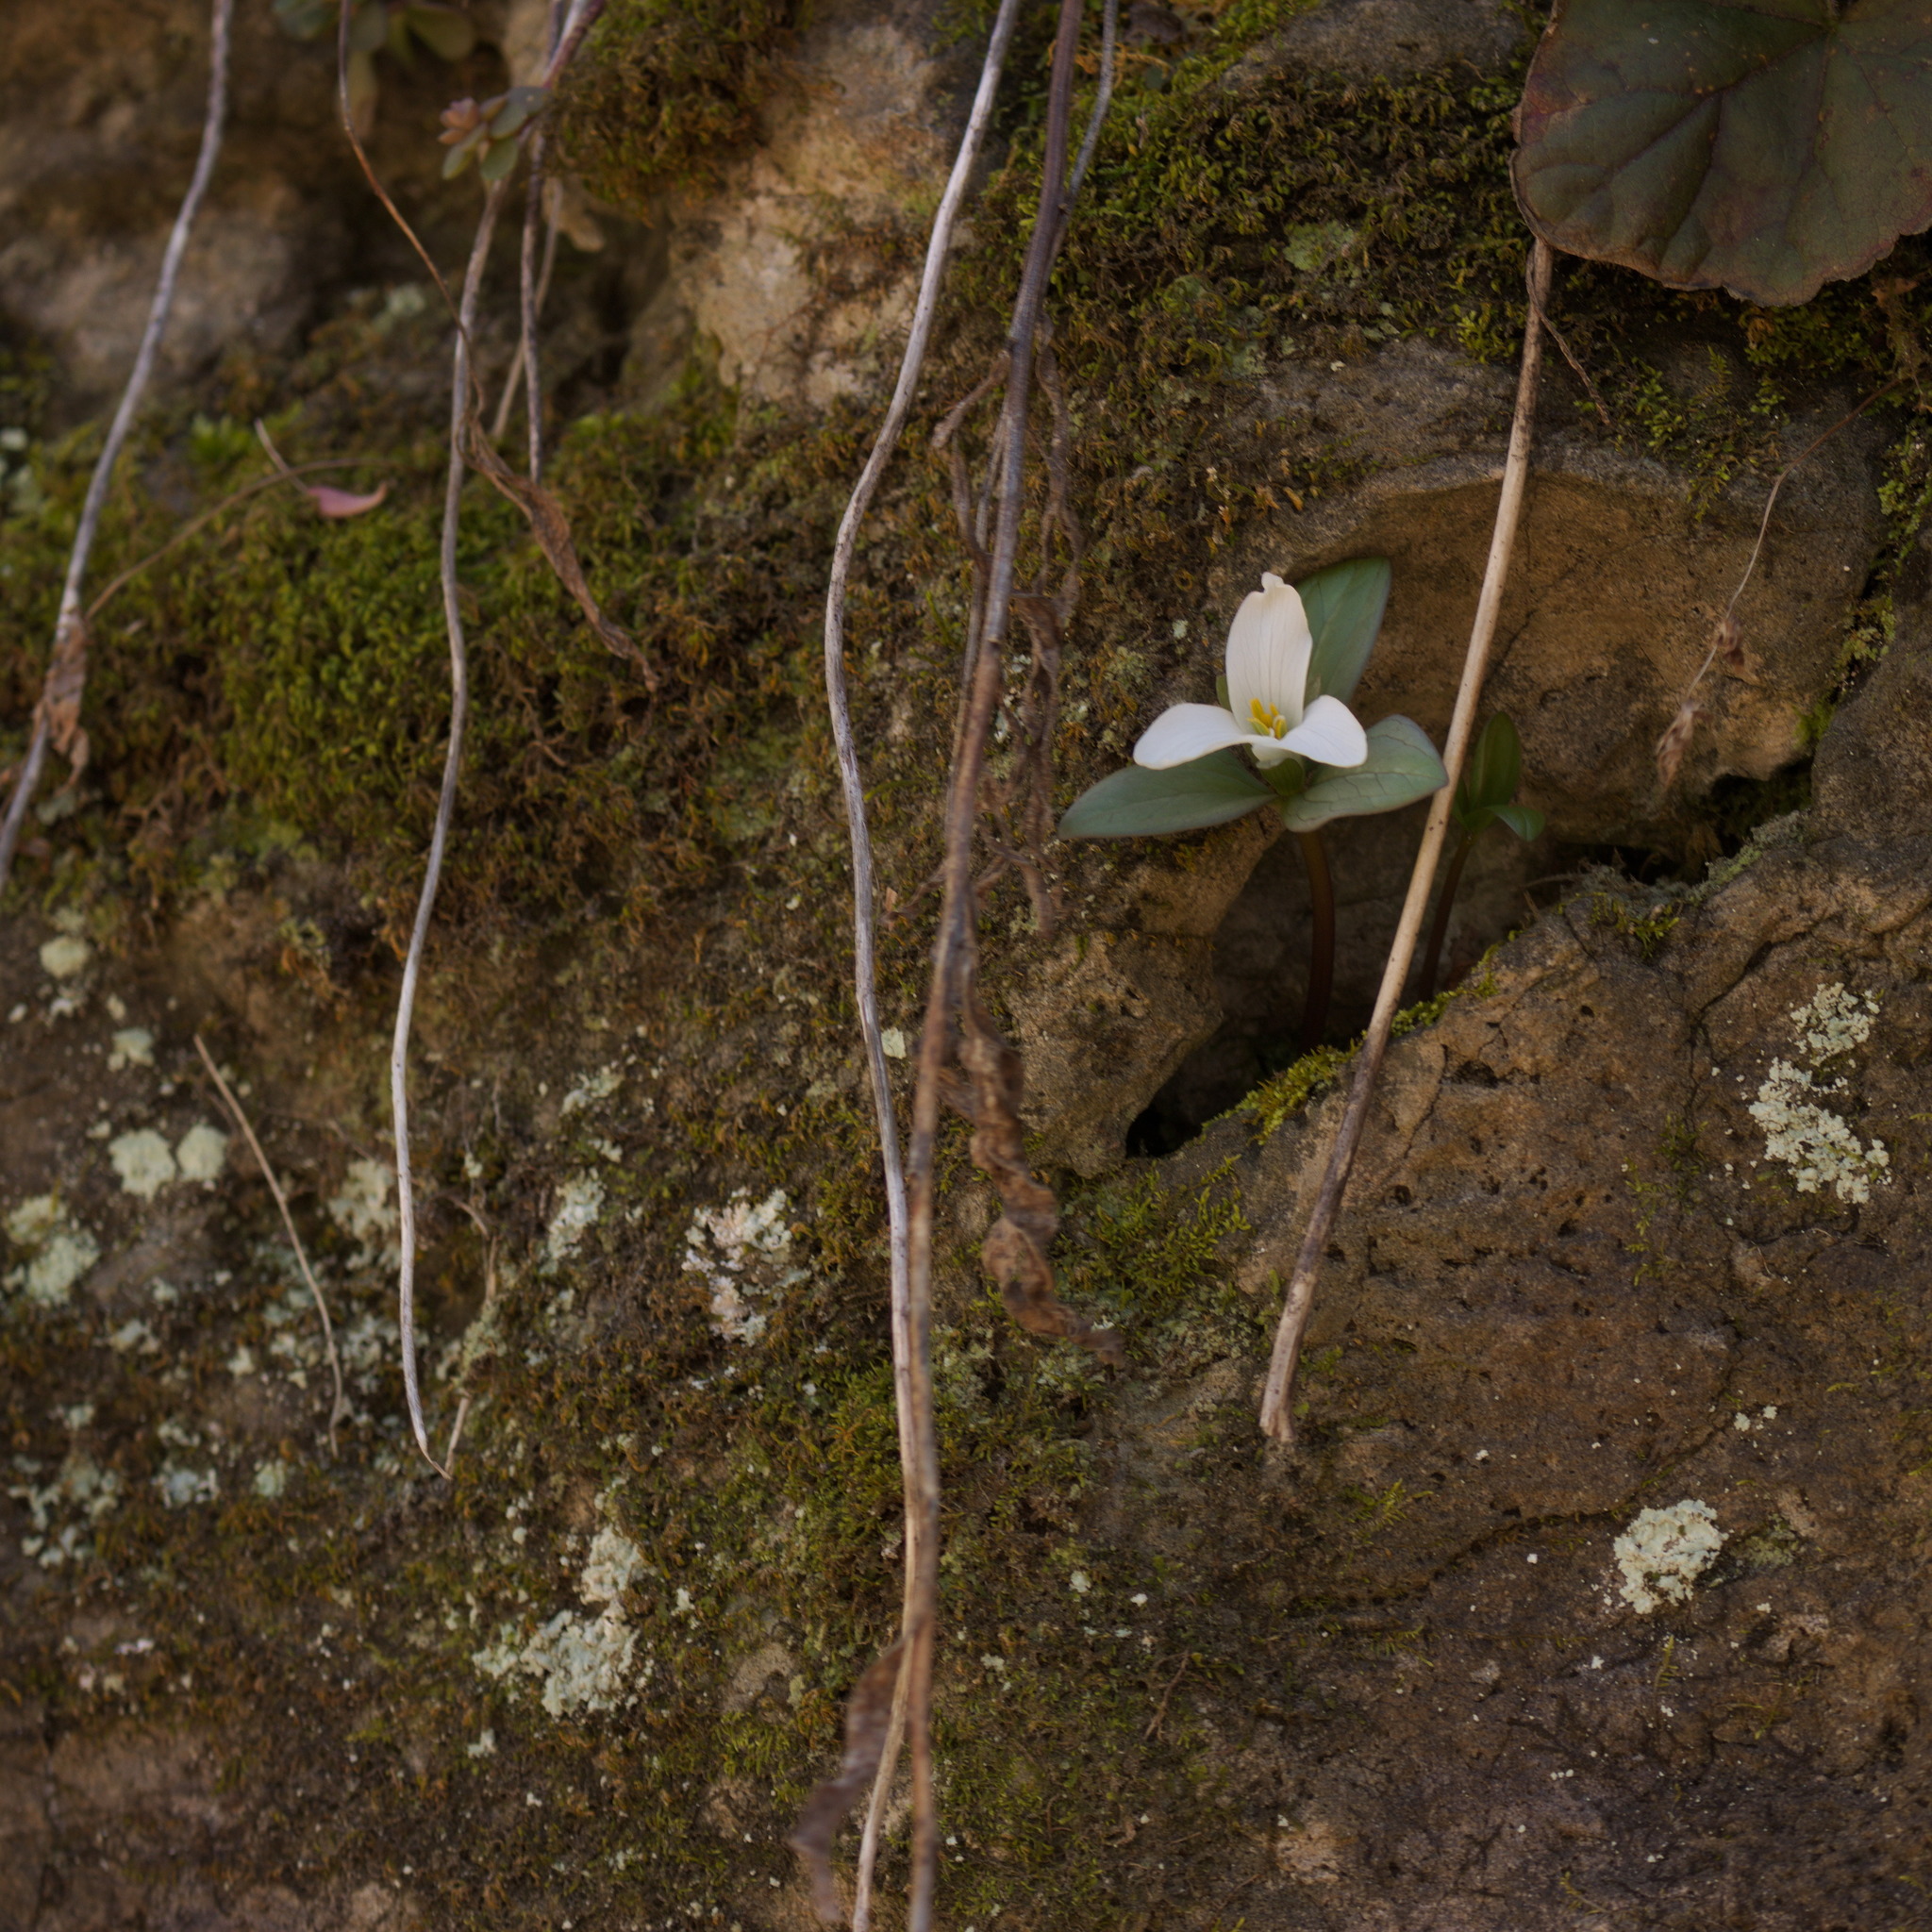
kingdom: Plantae
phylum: Tracheophyta
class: Liliopsida
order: Liliales
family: Melanthiaceae
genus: Trillium
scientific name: Trillium nivale
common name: Dwarf white trillium
